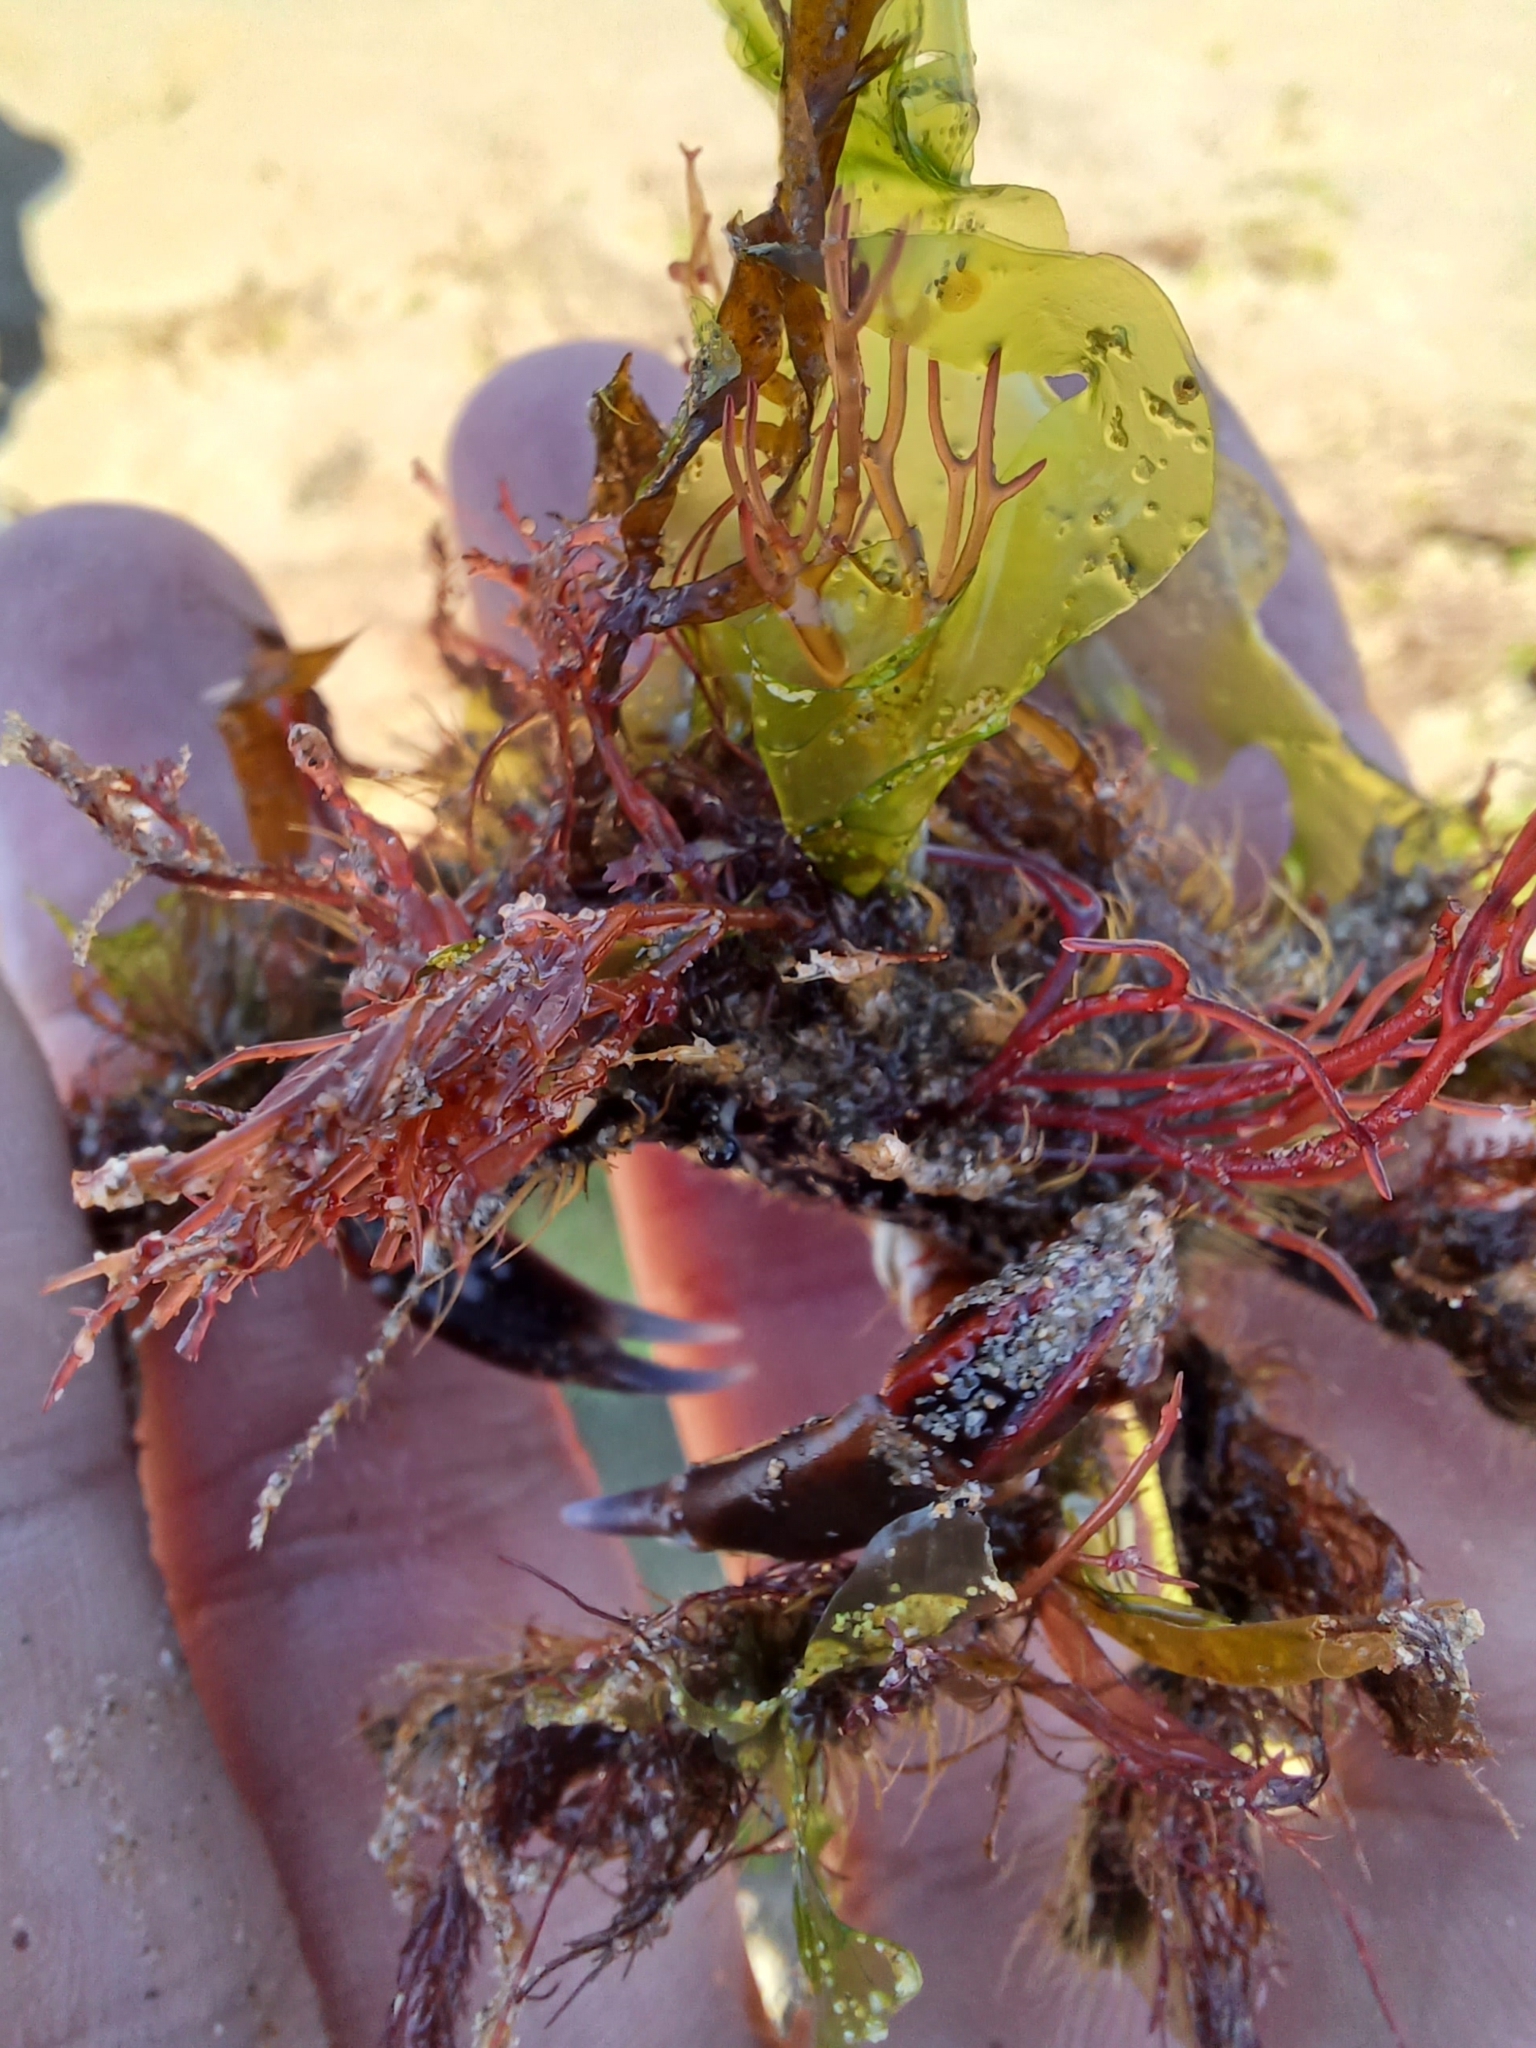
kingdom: Animalia
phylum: Arthropoda
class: Malacostraca
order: Decapoda
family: Majidae
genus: Notomithrax
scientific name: Notomithrax ursus
